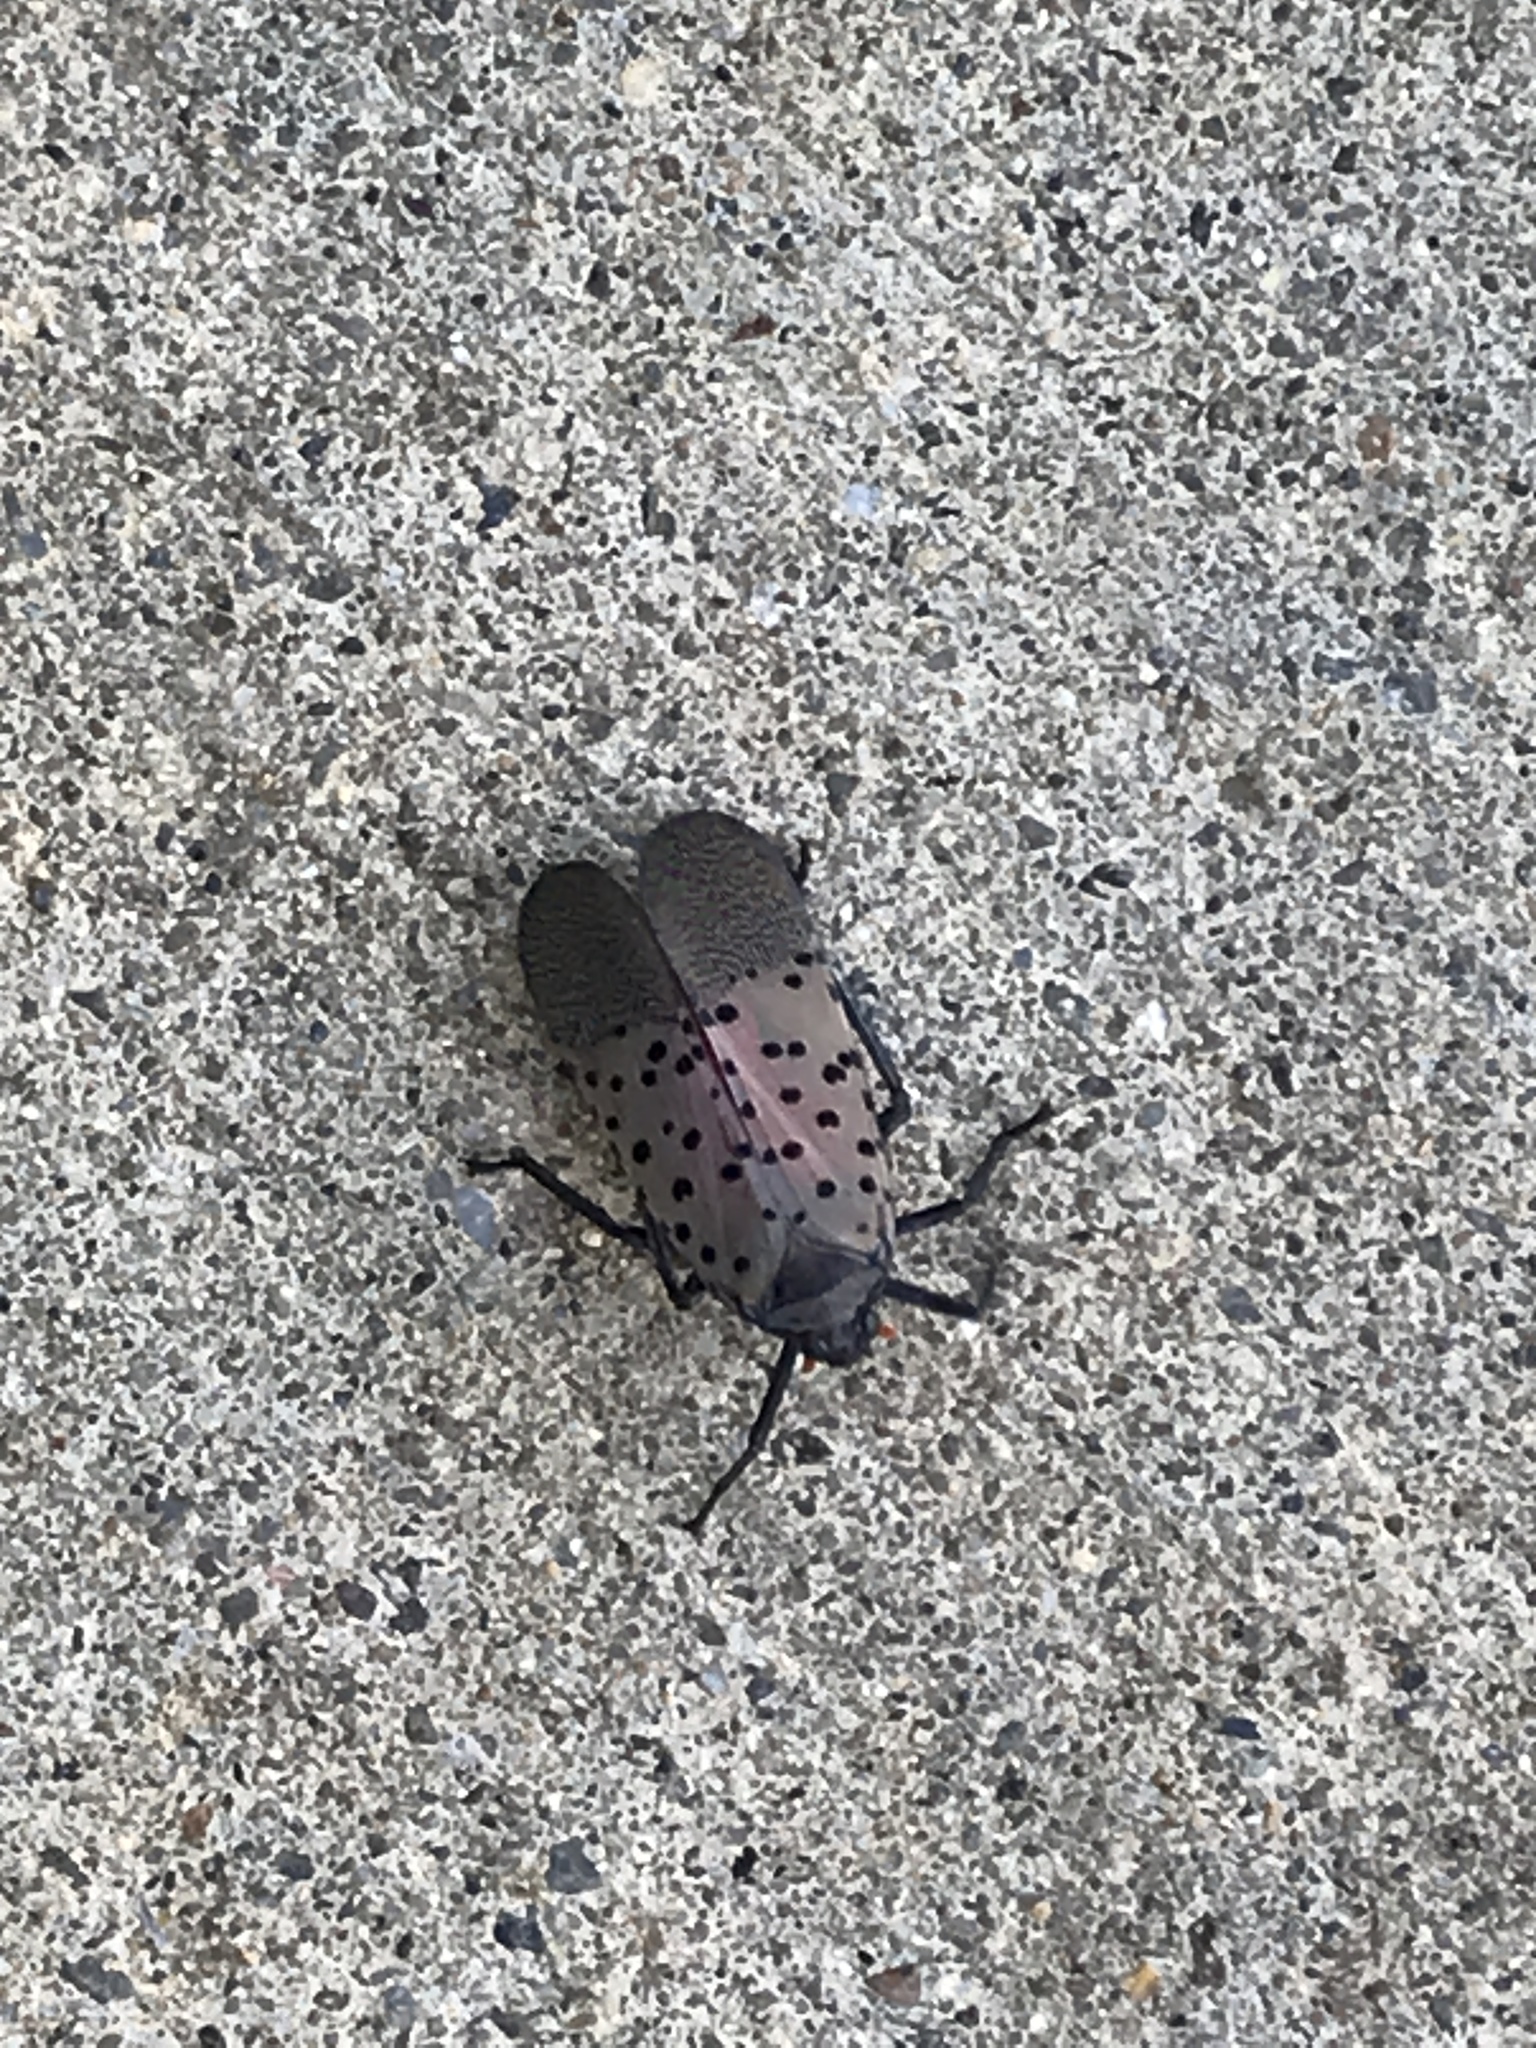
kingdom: Animalia
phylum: Arthropoda
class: Insecta
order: Hemiptera
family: Fulgoridae
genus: Lycorma
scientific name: Lycorma delicatula
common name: Spotted lanternfly
